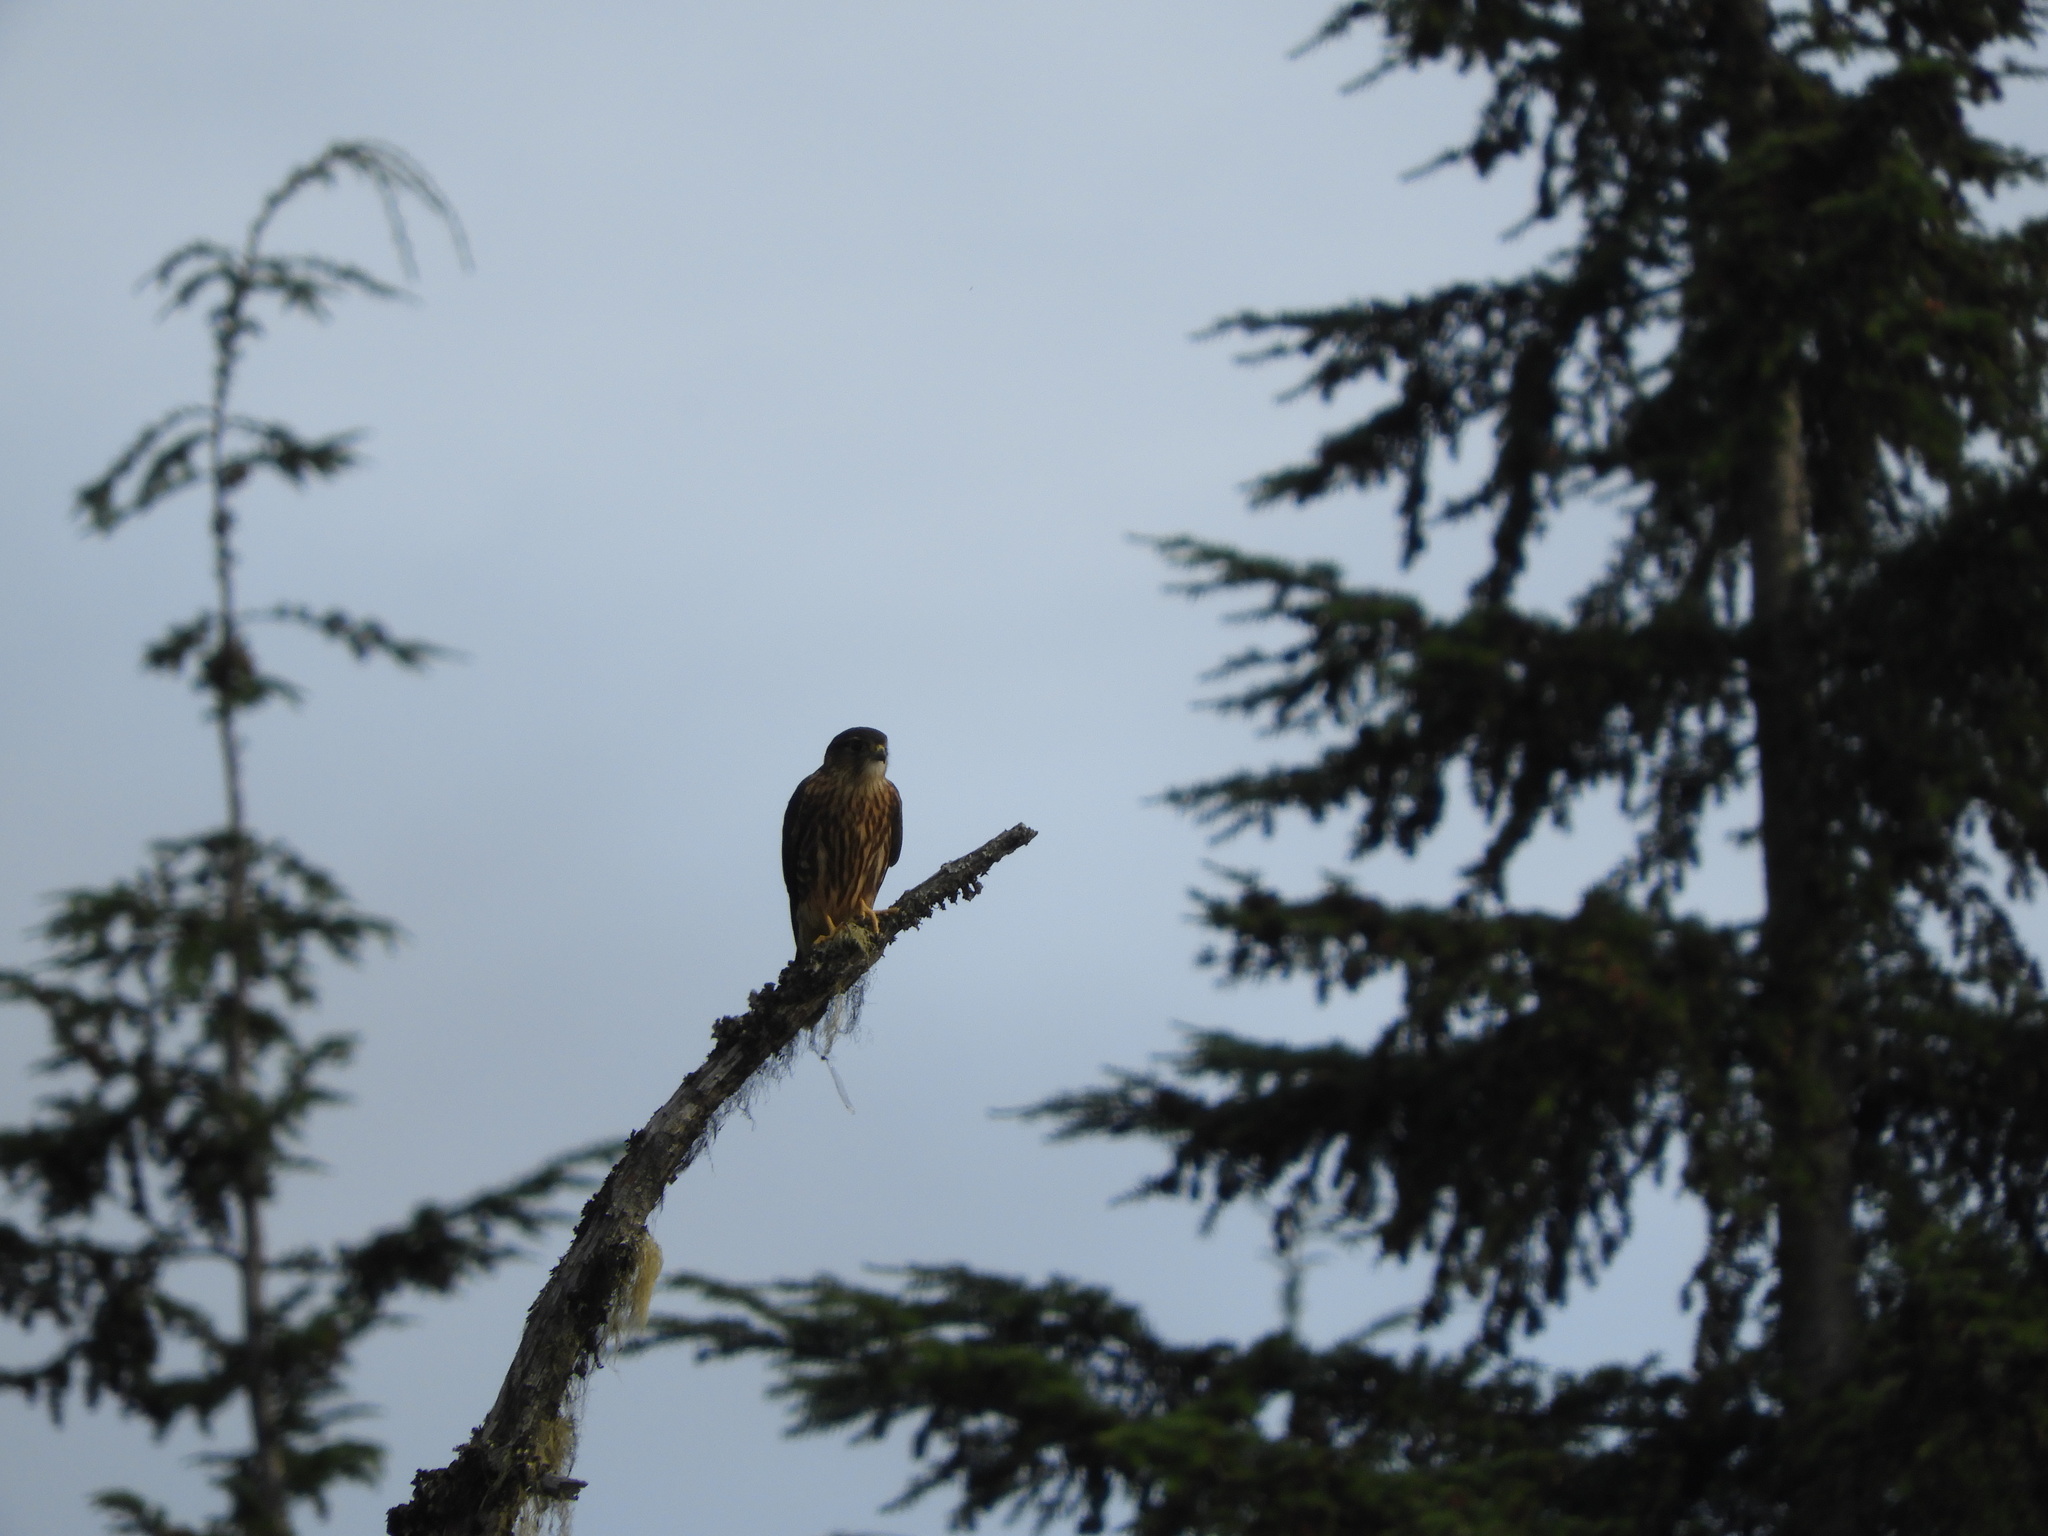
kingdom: Animalia
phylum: Chordata
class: Aves
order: Falconiformes
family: Falconidae
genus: Falco
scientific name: Falco columbarius
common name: Merlin
